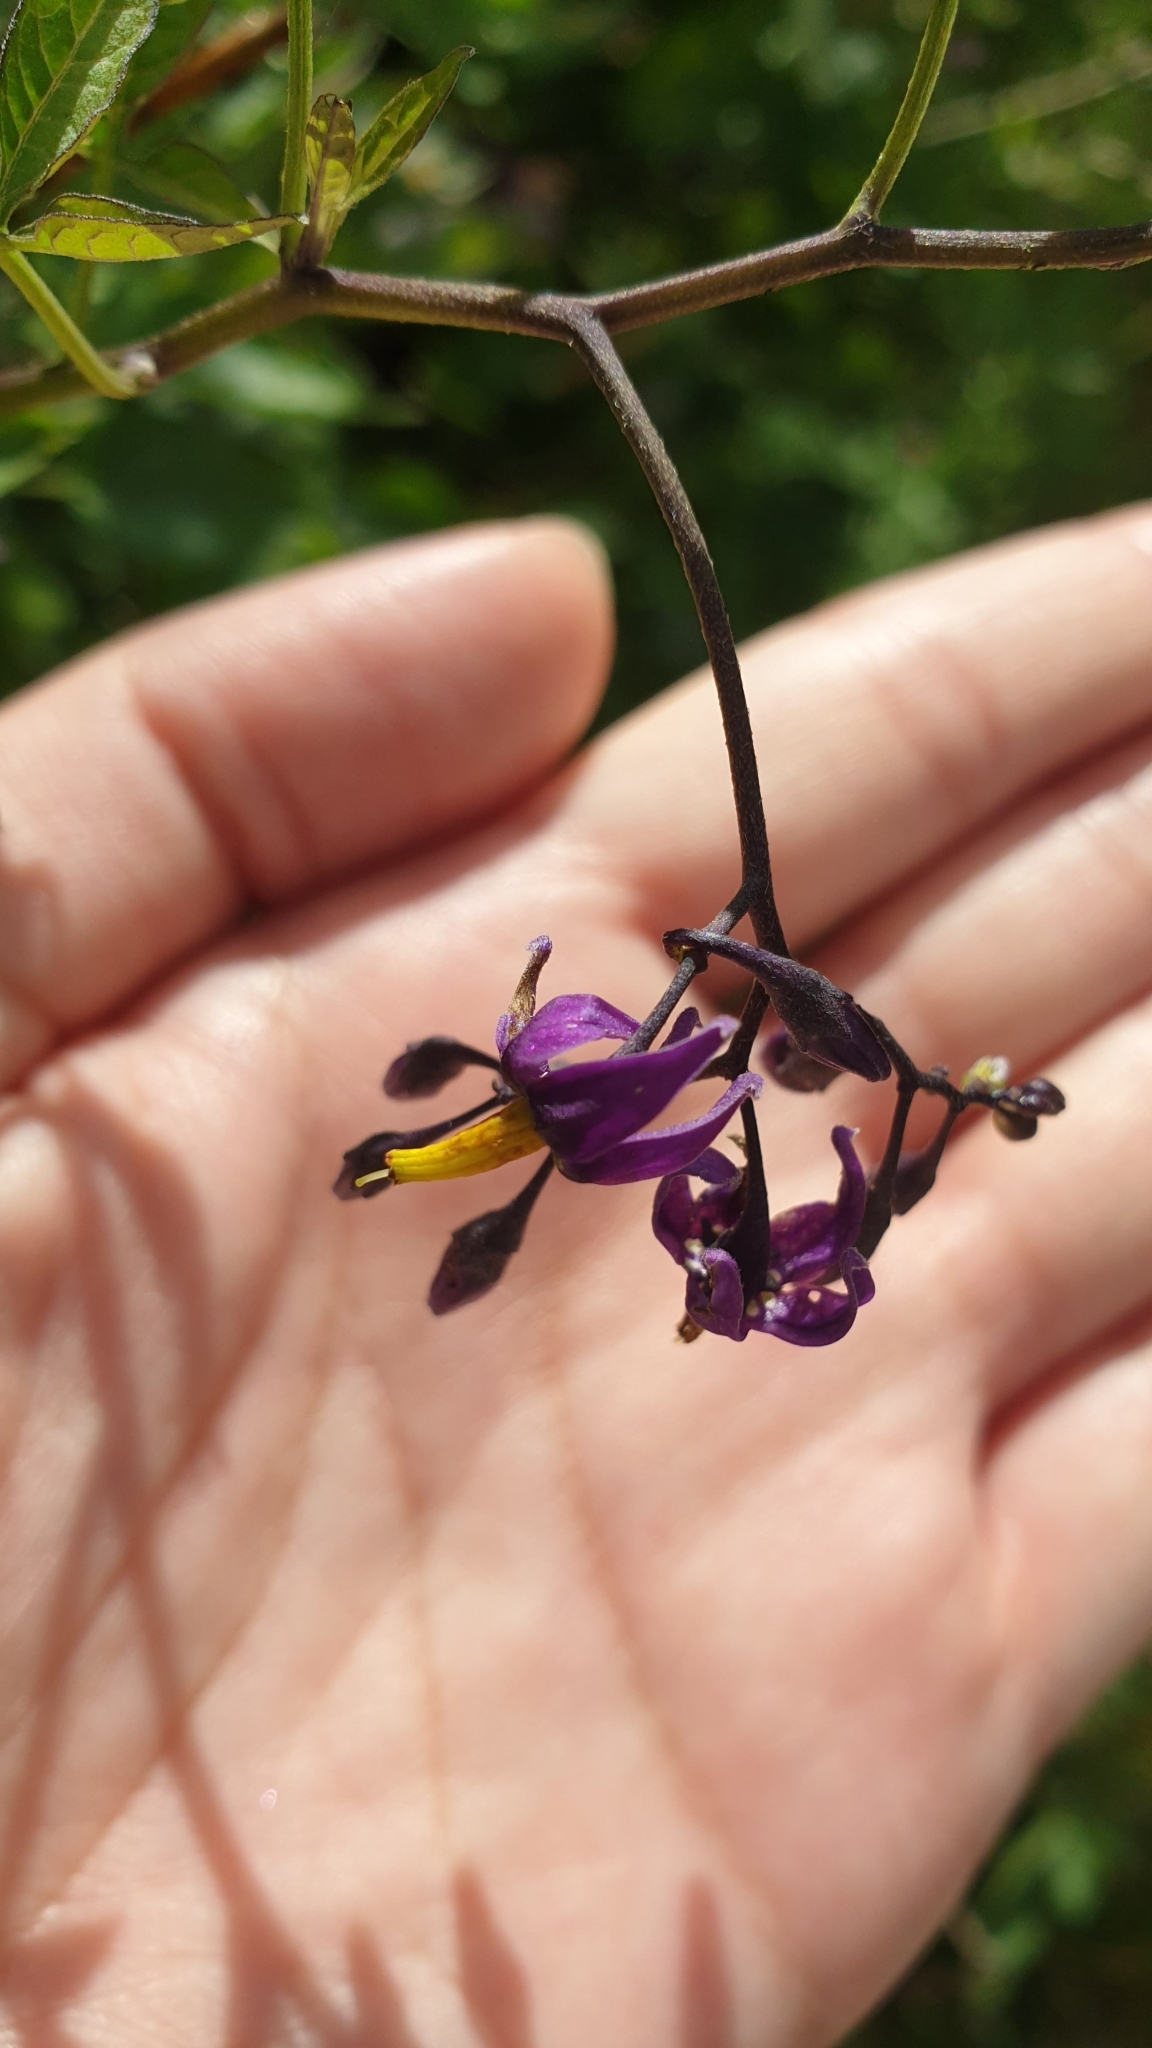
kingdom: Plantae
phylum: Tracheophyta
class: Magnoliopsida
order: Solanales
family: Solanaceae
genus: Solanum
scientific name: Solanum dulcamara
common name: Climbing nightshade
